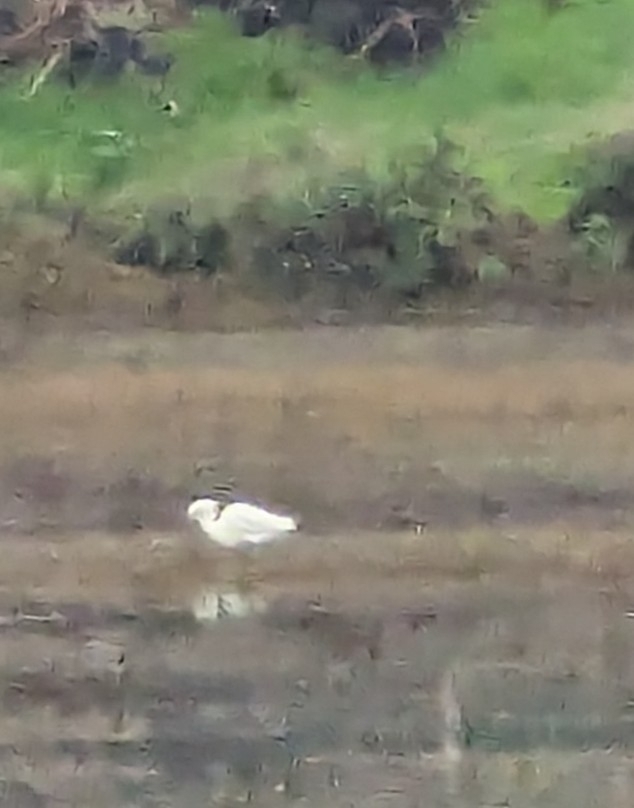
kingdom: Animalia
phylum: Chordata
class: Aves
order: Pelecaniformes
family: Ardeidae
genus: Egretta
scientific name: Egretta thula
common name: Snowy egret
